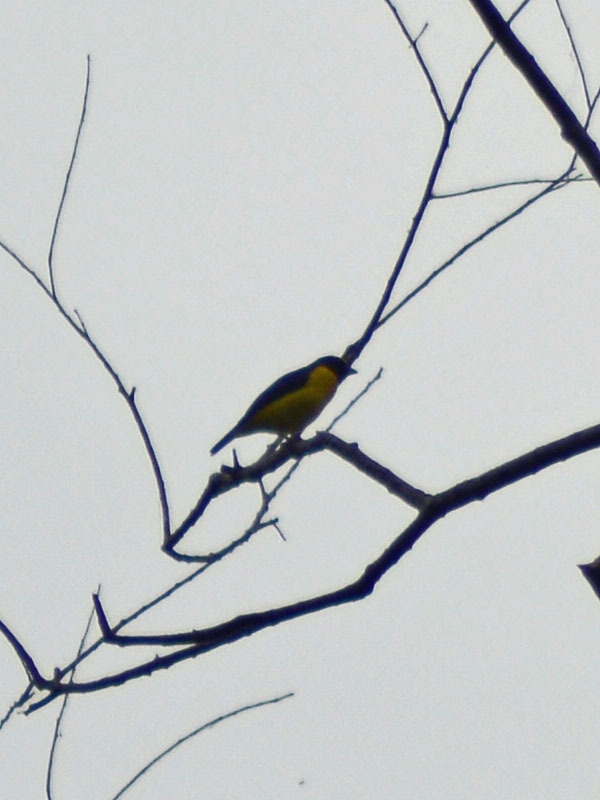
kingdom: Animalia
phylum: Chordata
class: Aves
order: Passeriformes
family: Fringillidae
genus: Euphonia
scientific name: Euphonia affinis
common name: Scrub euphonia
